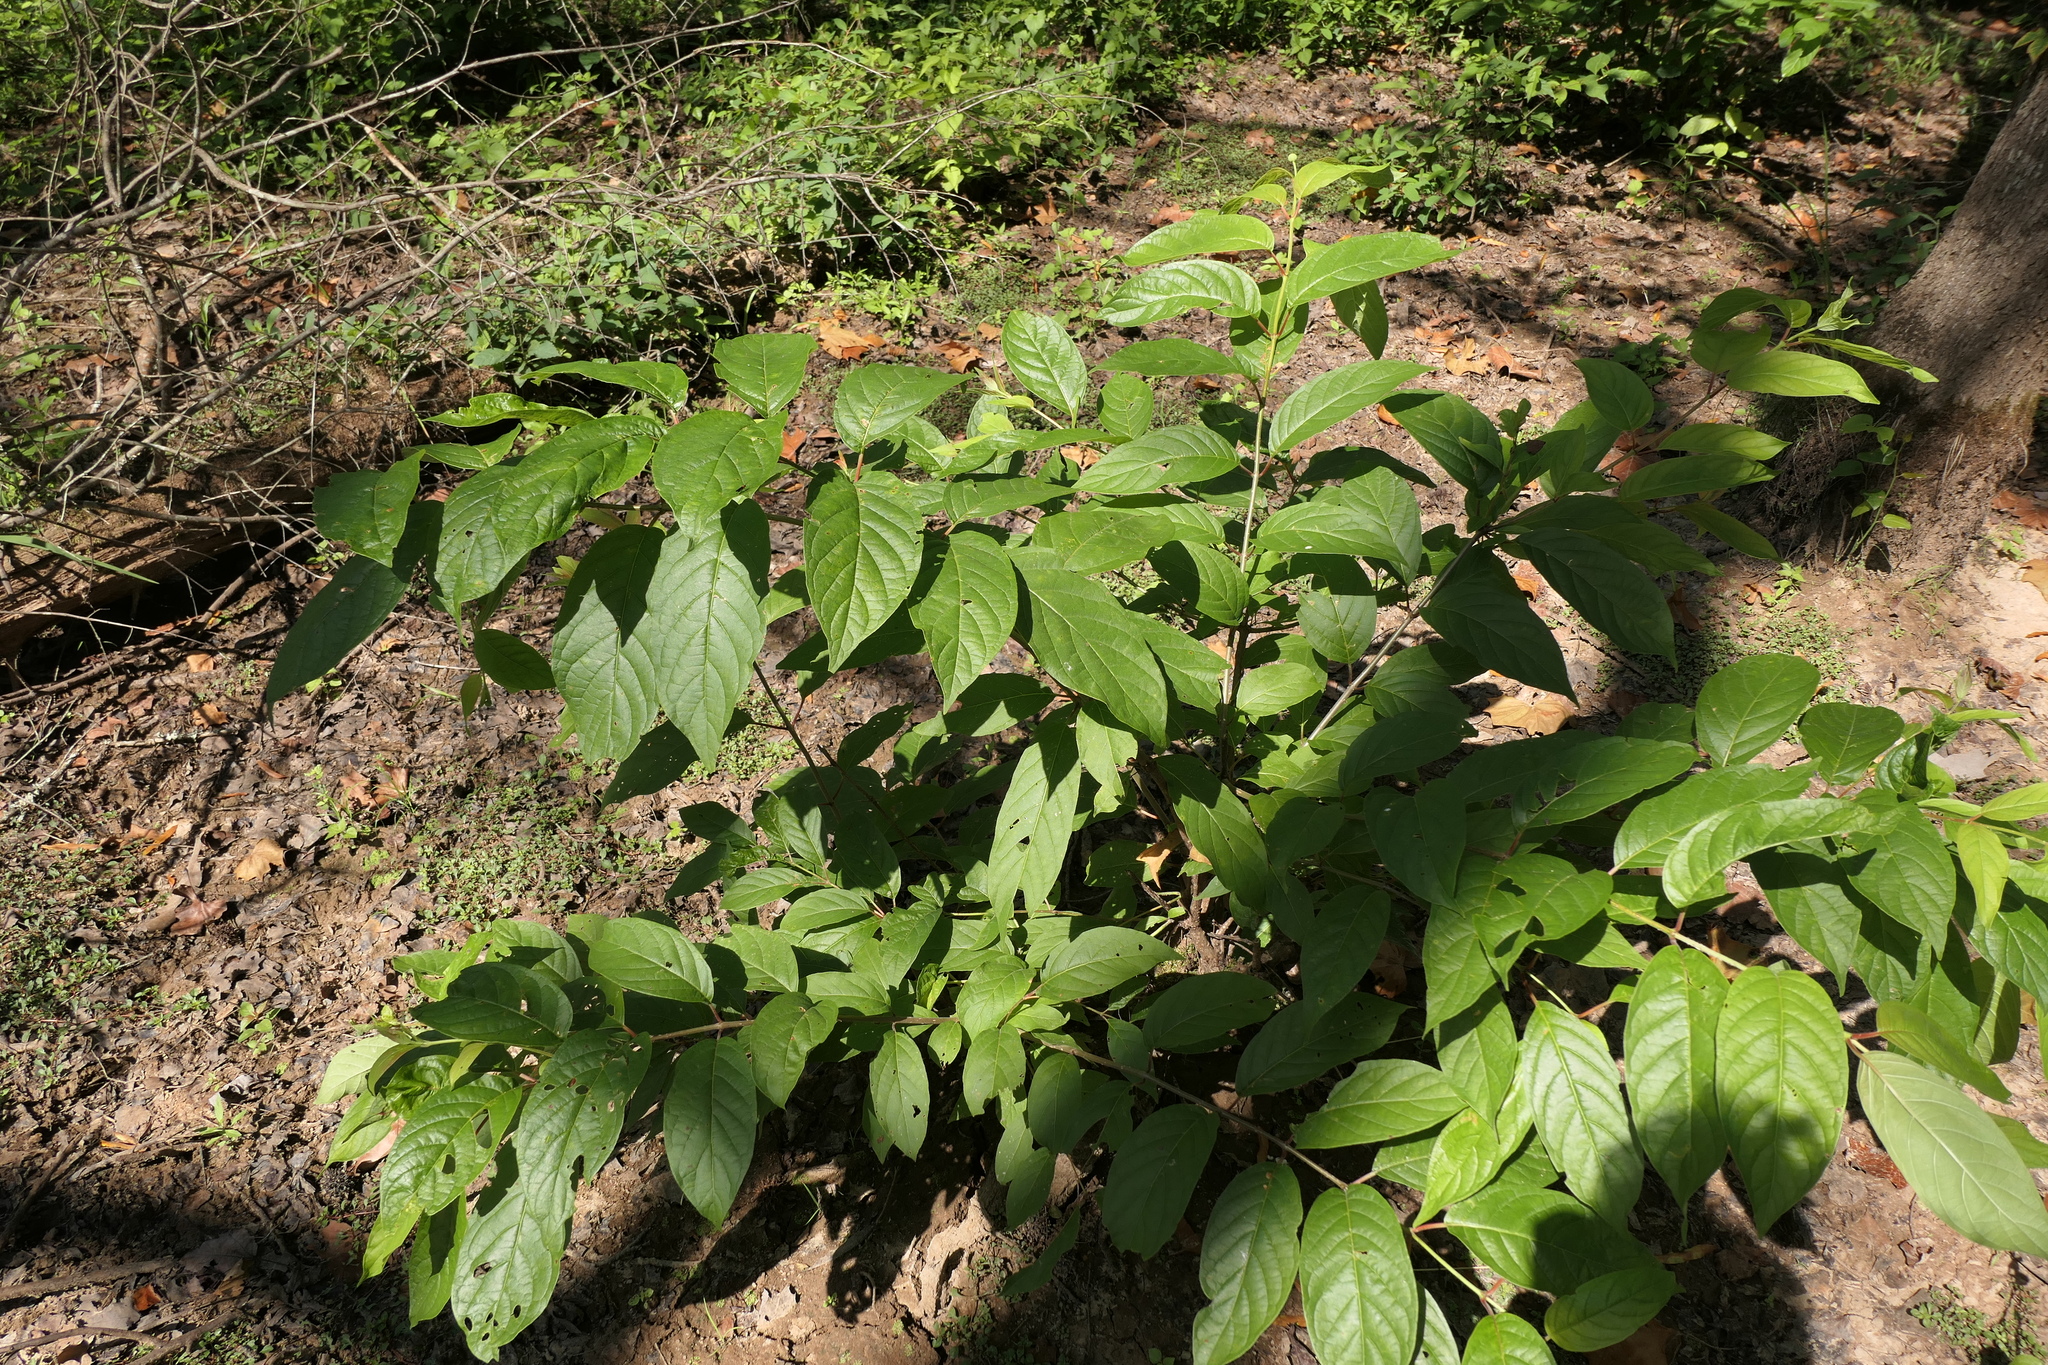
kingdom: Plantae
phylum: Tracheophyta
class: Magnoliopsida
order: Gentianales
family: Rubiaceae
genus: Cephalanthus
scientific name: Cephalanthus occidentalis
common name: Button-willow
